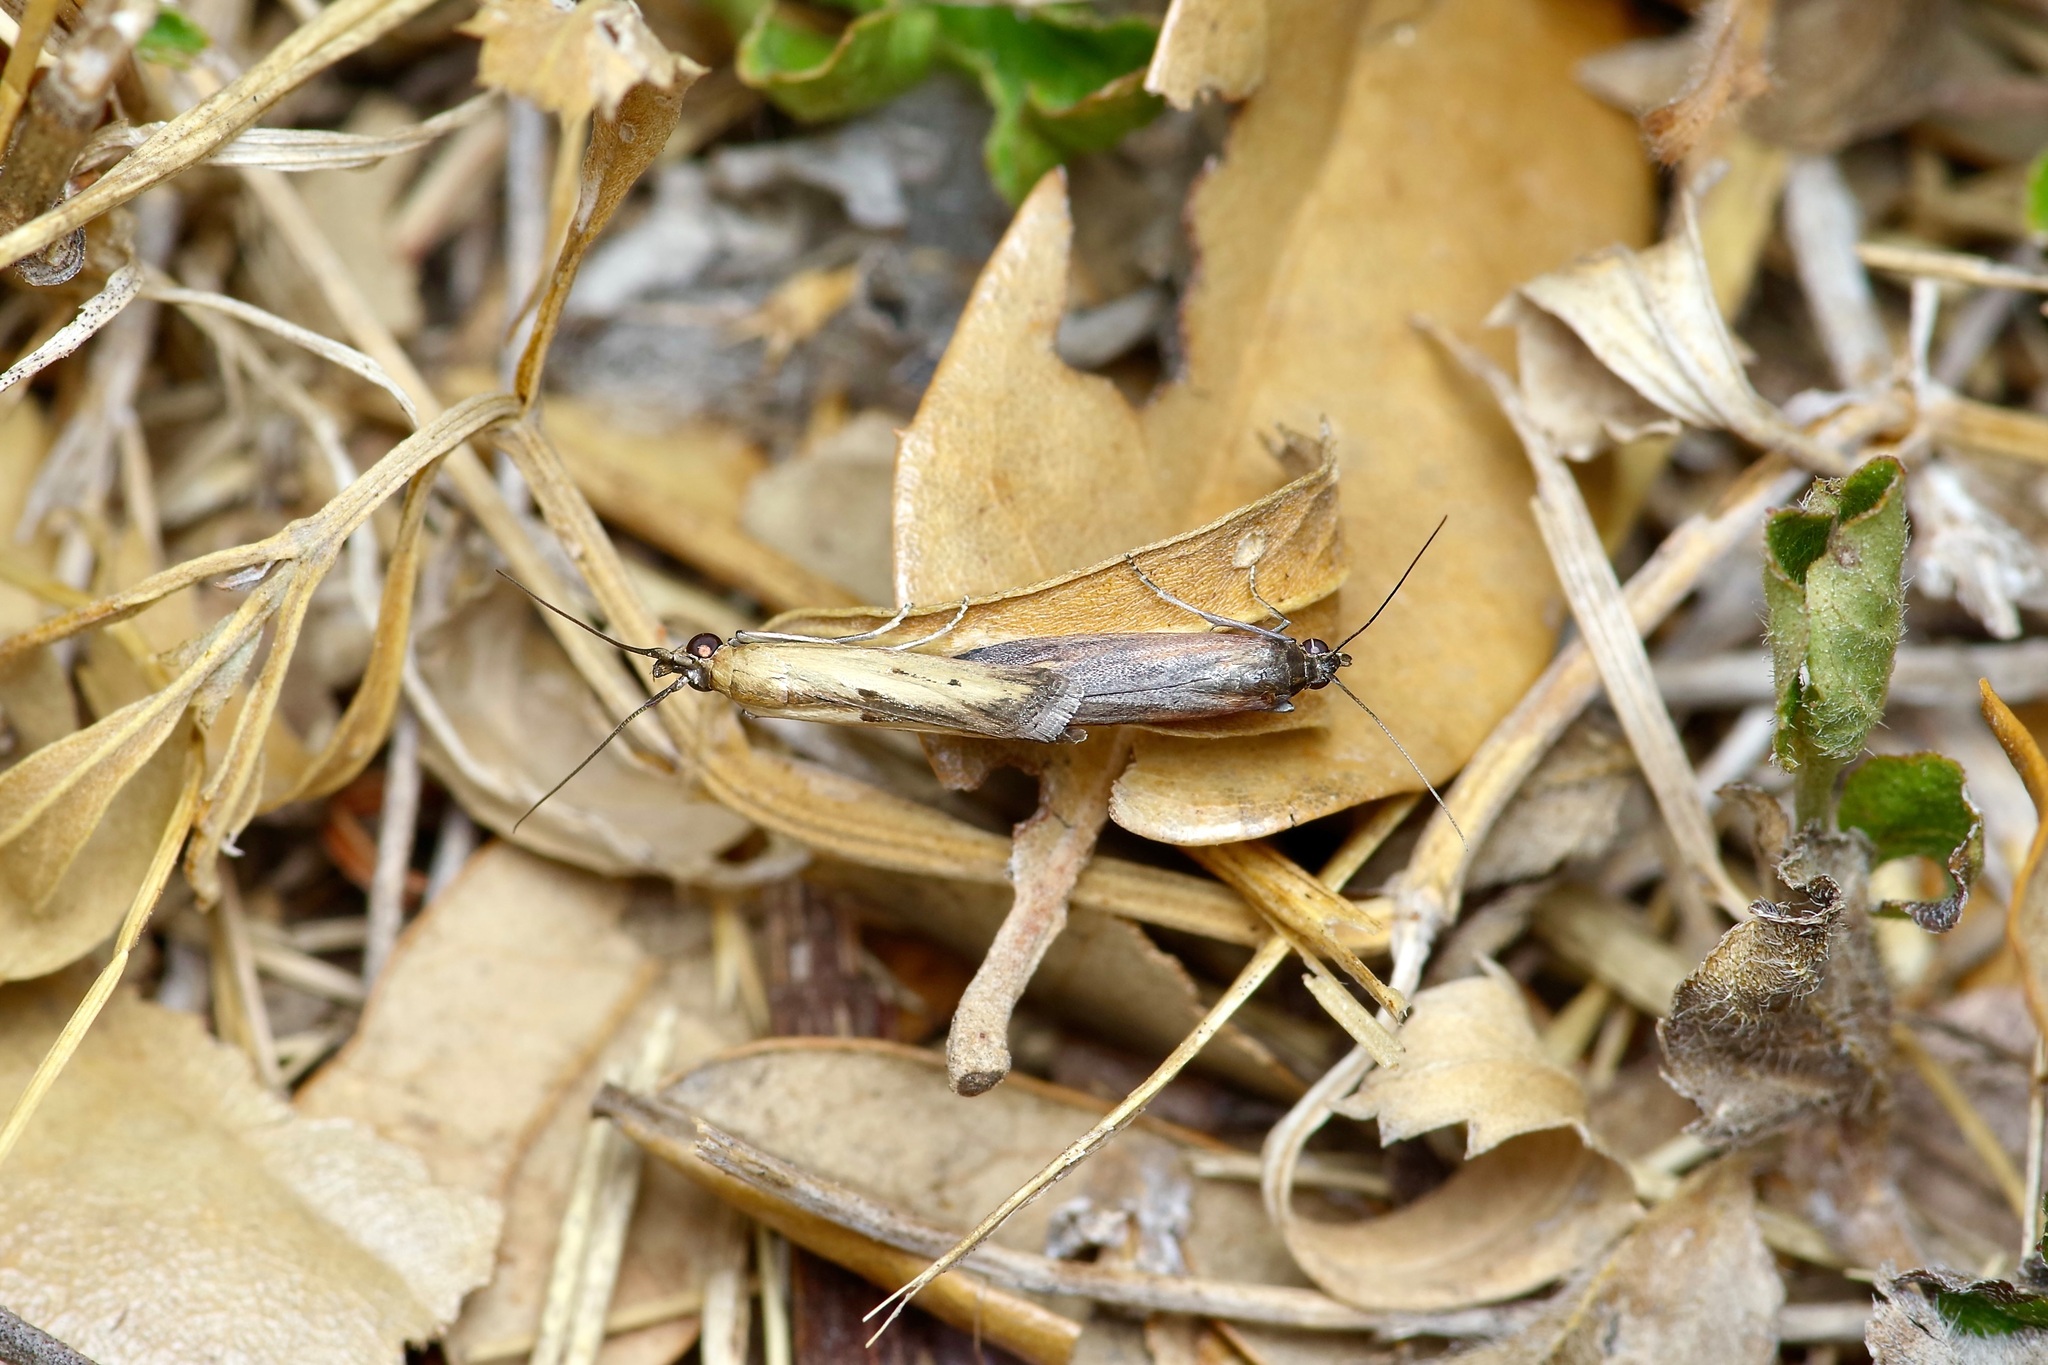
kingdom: Animalia
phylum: Arthropoda
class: Insecta
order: Lepidoptera
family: Pyralidae
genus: Elasmopalpus
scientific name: Elasmopalpus lignosella
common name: Lesser cornstalk borer
